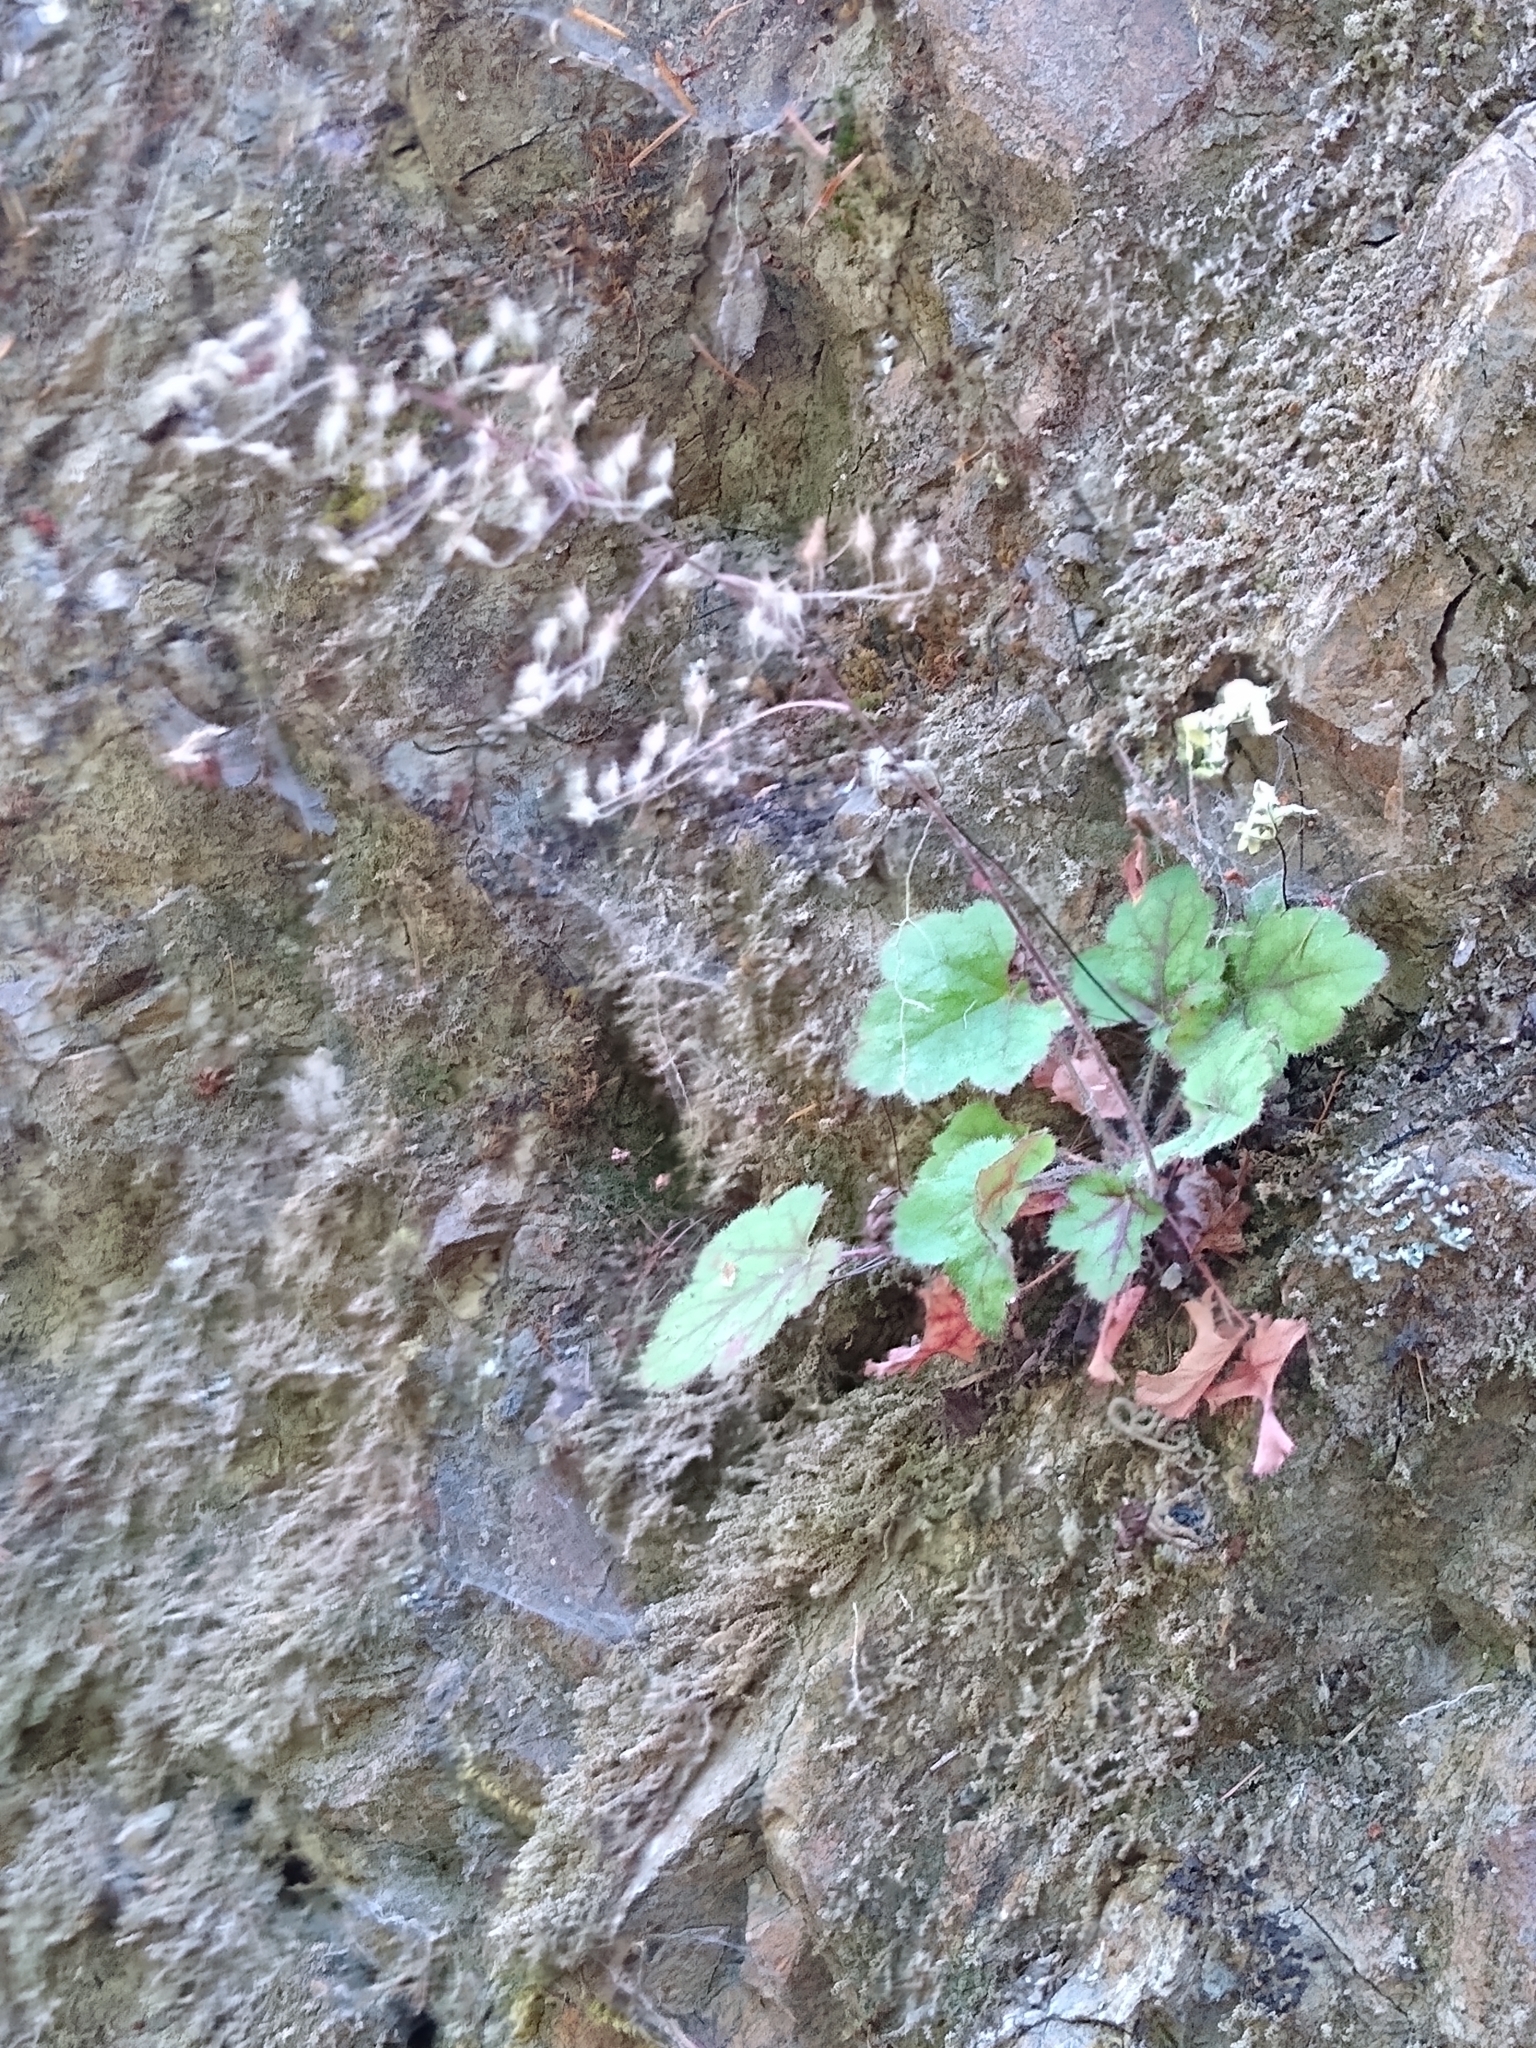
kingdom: Plantae
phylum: Tracheophyta
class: Magnoliopsida
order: Saxifragales
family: Saxifragaceae
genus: Heuchera
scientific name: Heuchera micrantha
